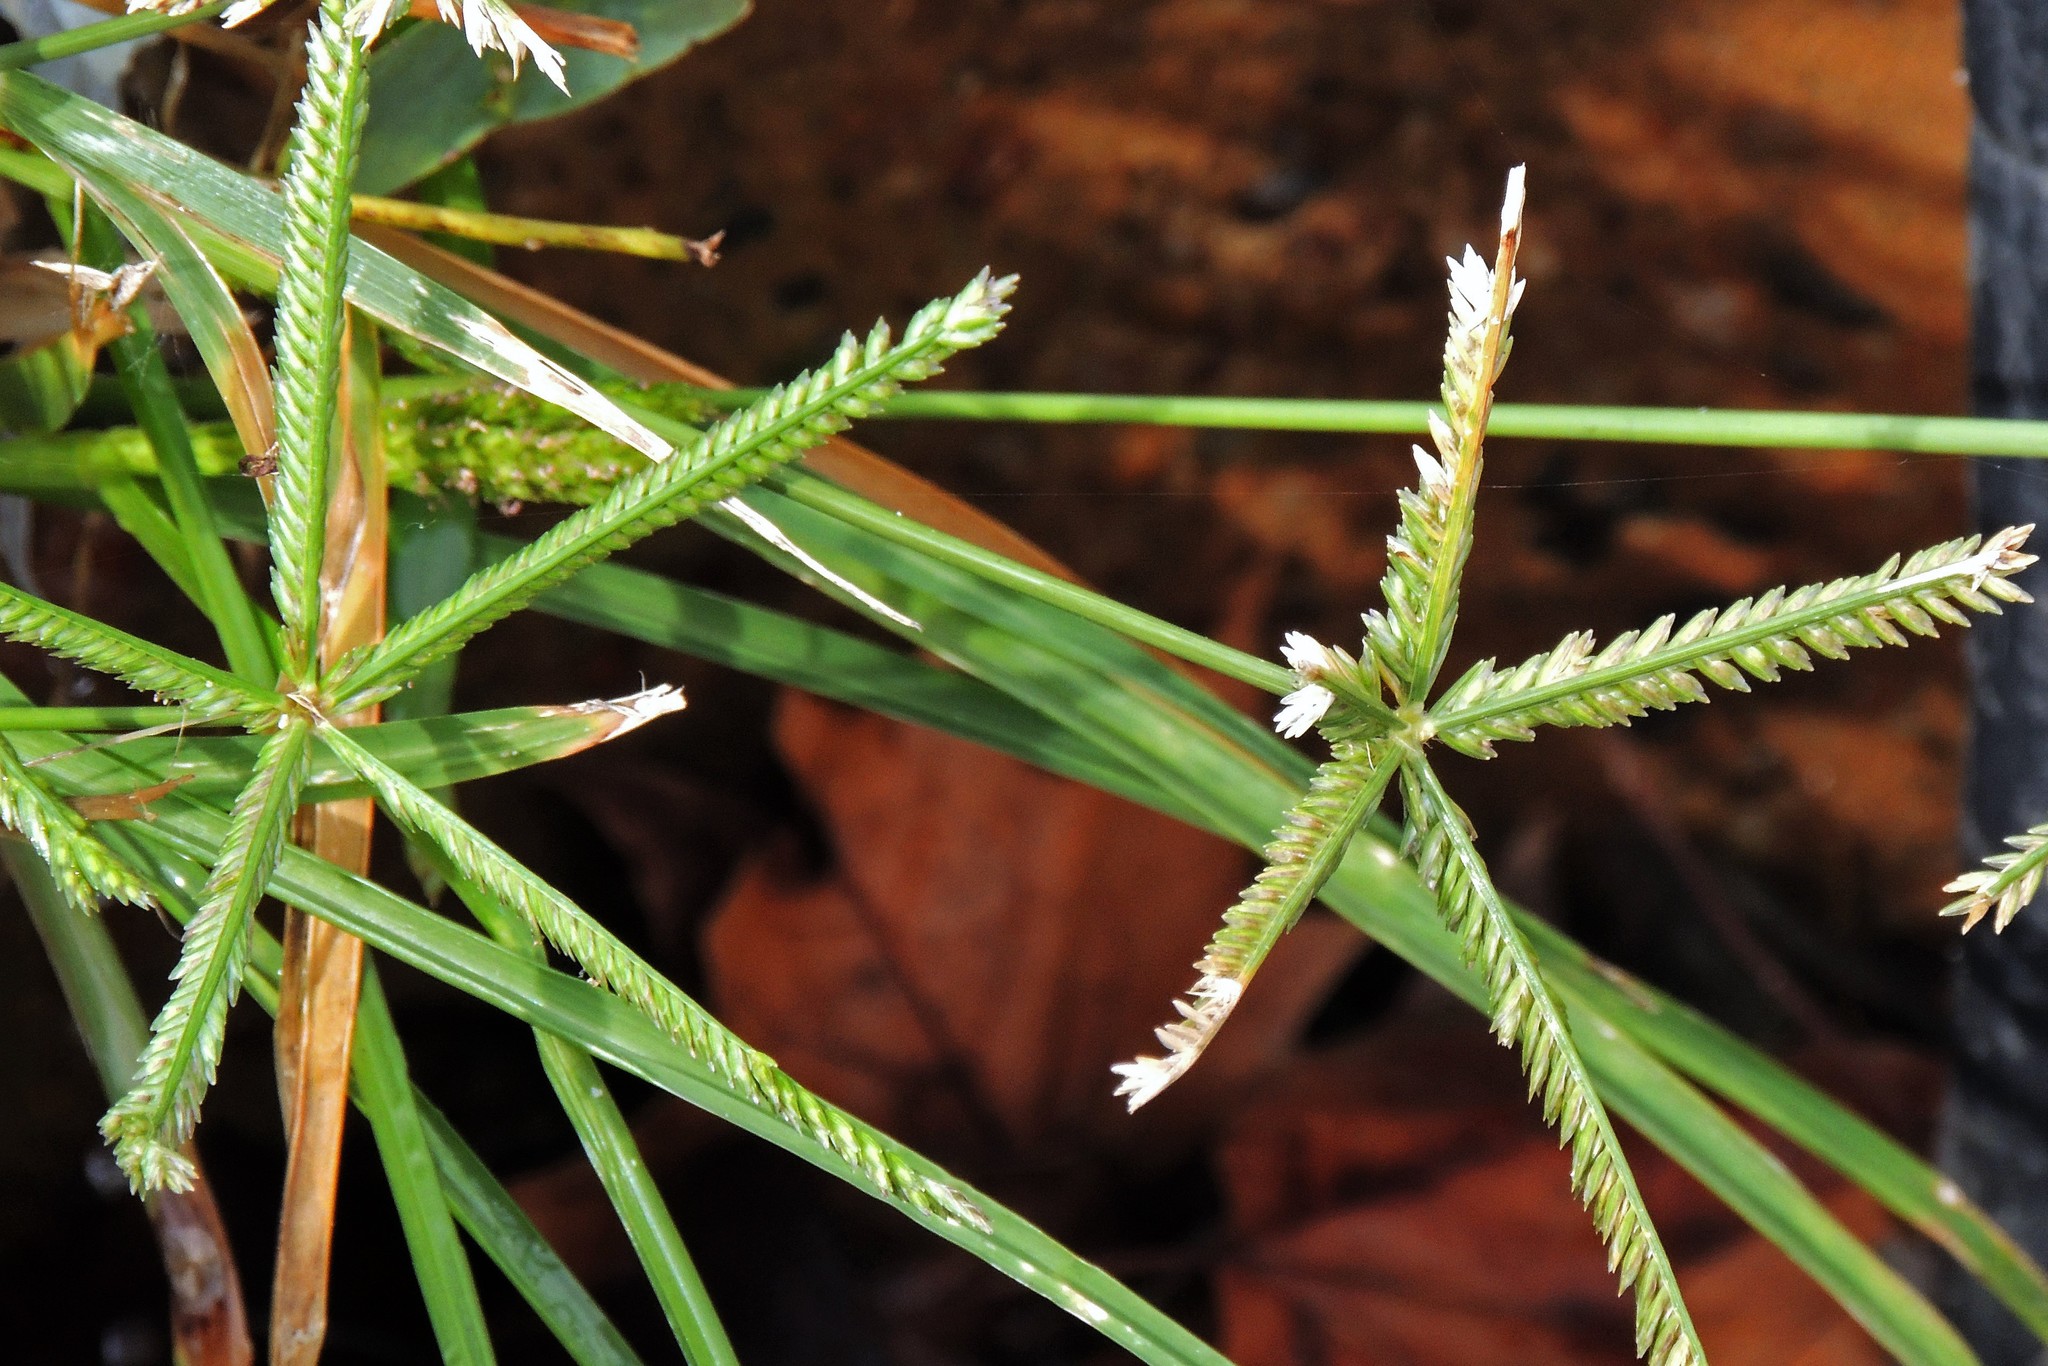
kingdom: Plantae
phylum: Tracheophyta
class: Liliopsida
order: Poales
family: Poaceae
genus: Eleusine
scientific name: Eleusine indica
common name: Yard-grass
